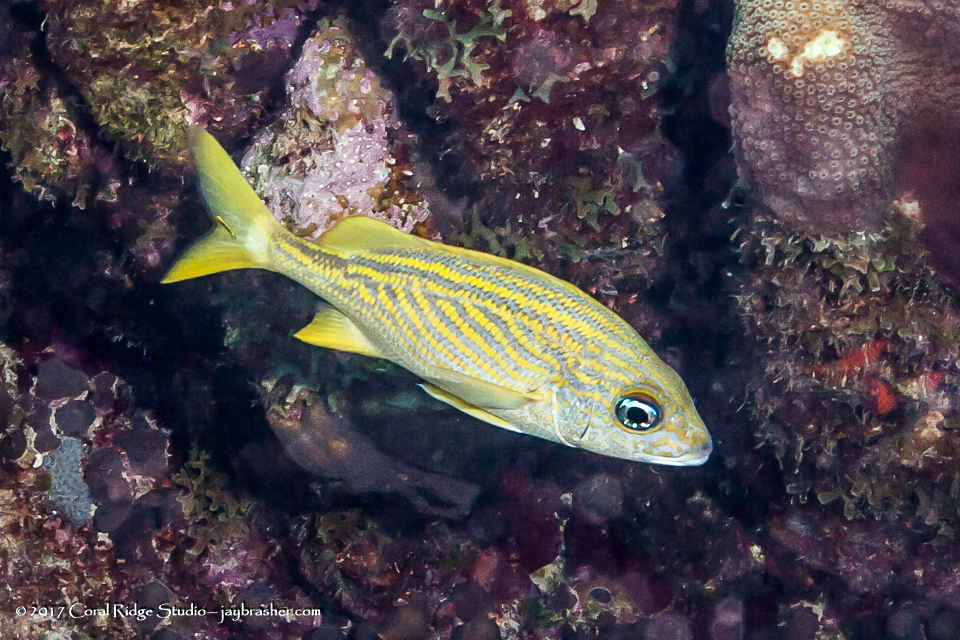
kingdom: Animalia
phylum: Chordata
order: Perciformes
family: Haemulidae
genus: Haemulon
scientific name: Haemulon flavolineatum
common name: French grunt
